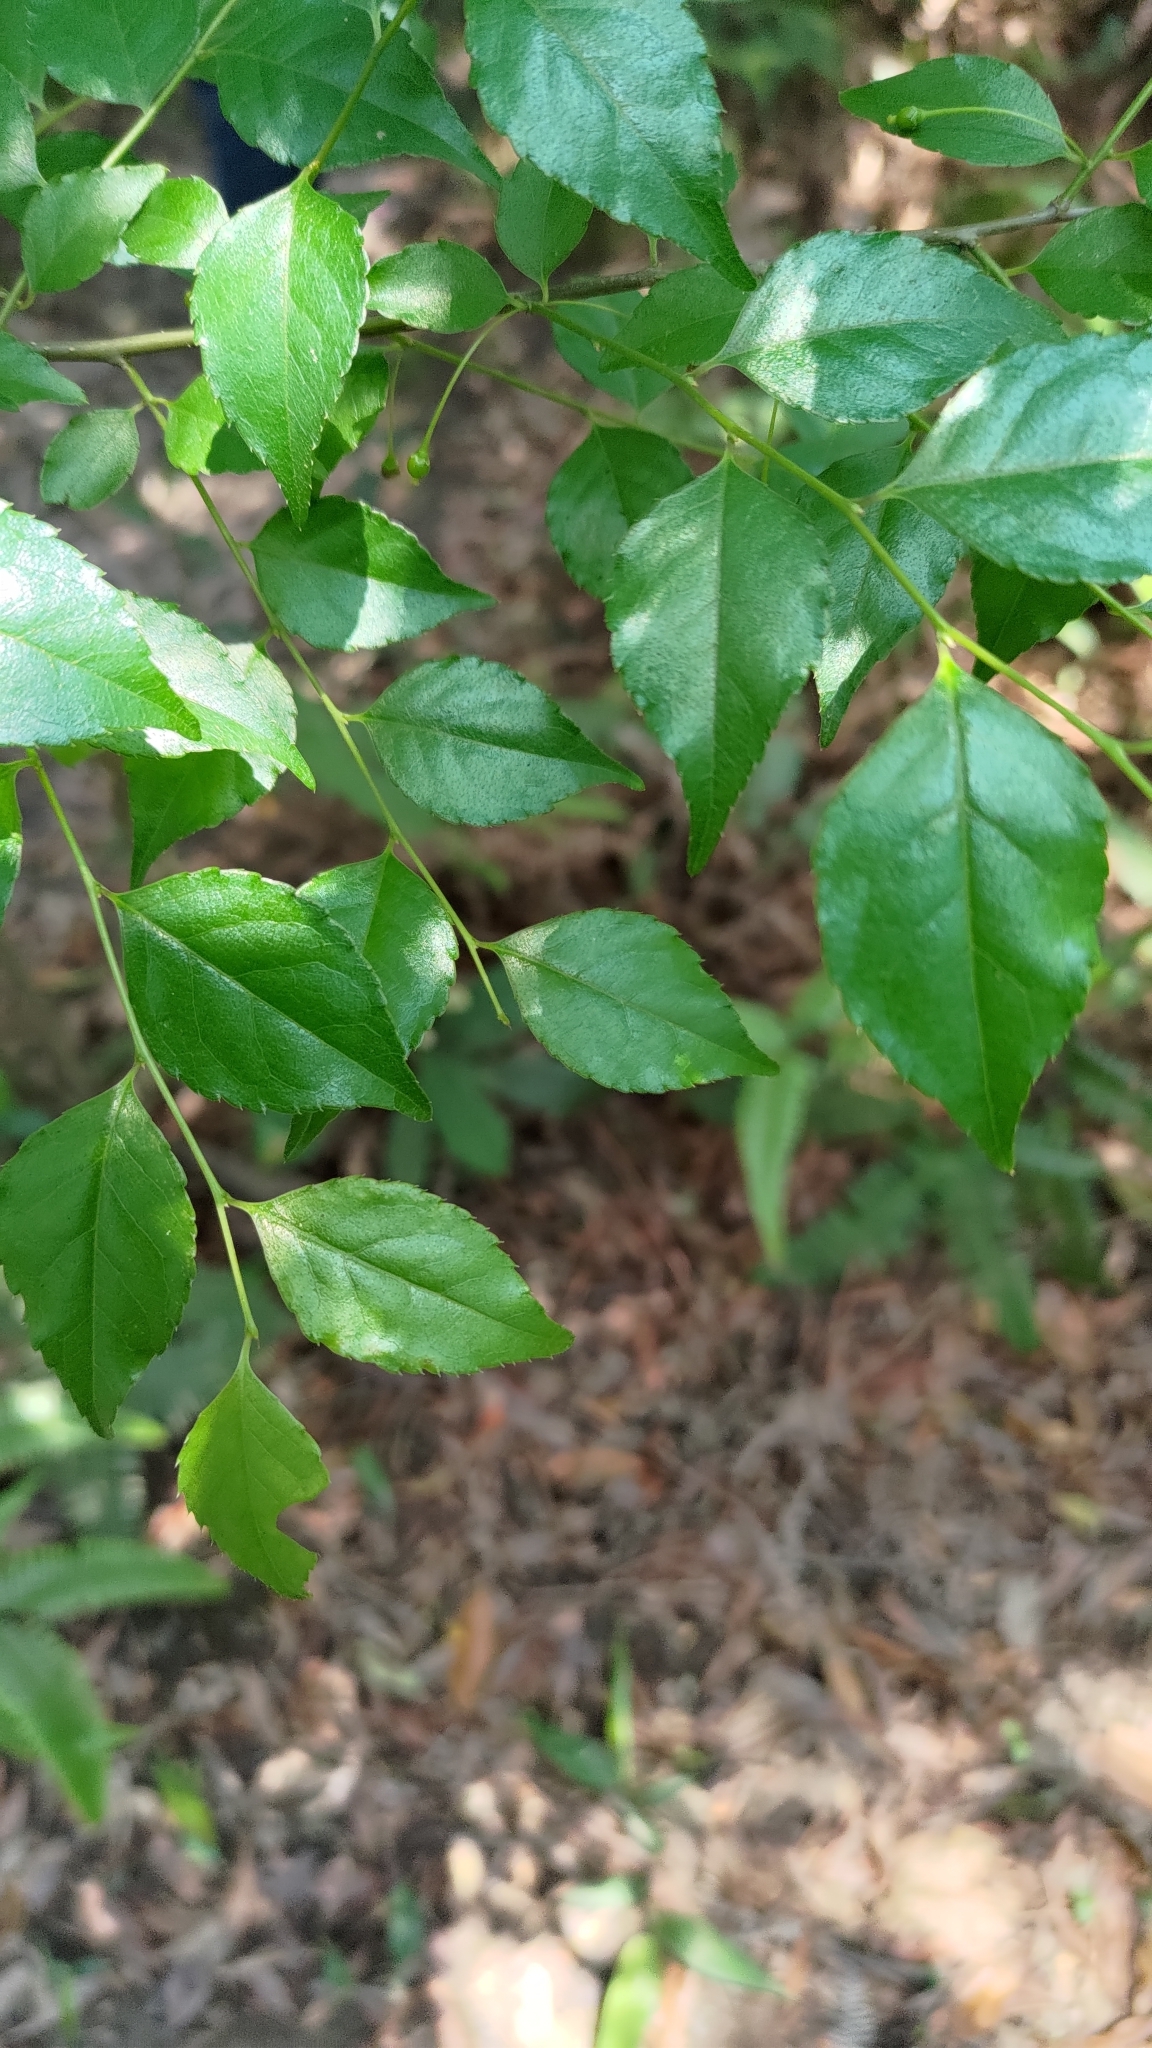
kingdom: Plantae
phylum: Tracheophyta
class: Magnoliopsida
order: Aquifoliales
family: Aquifoliaceae
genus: Ilex
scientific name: Ilex asprella
